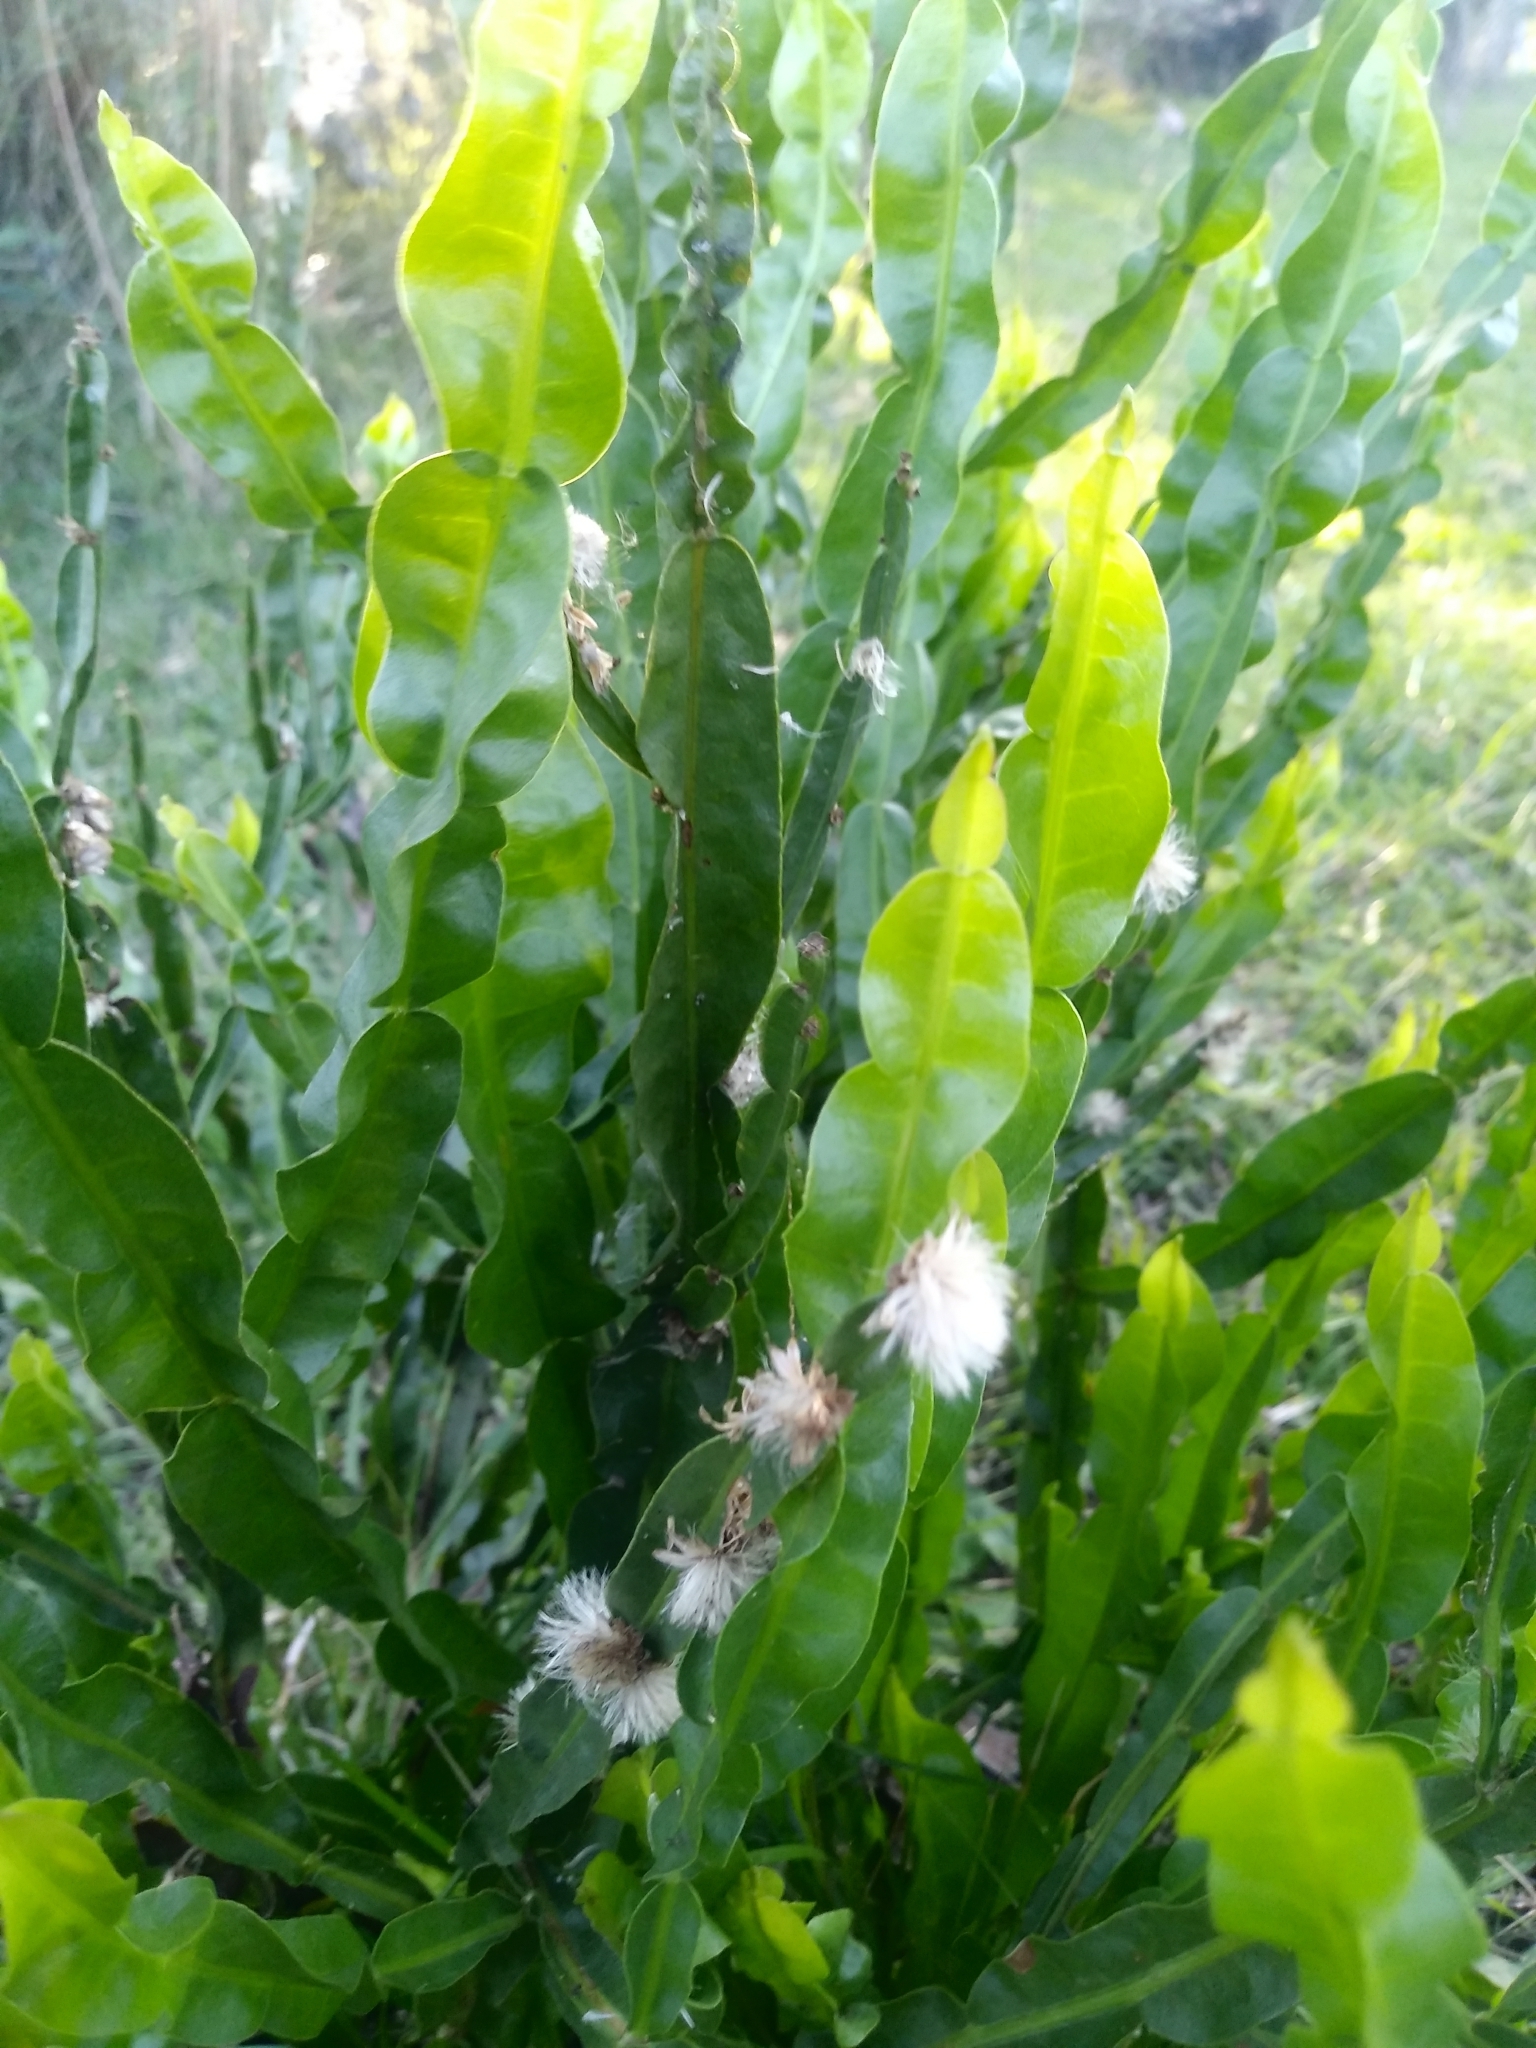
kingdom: Plantae
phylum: Tracheophyta
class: Magnoliopsida
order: Asterales
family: Asteraceae
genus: Baccharis
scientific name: Baccharis trimera
